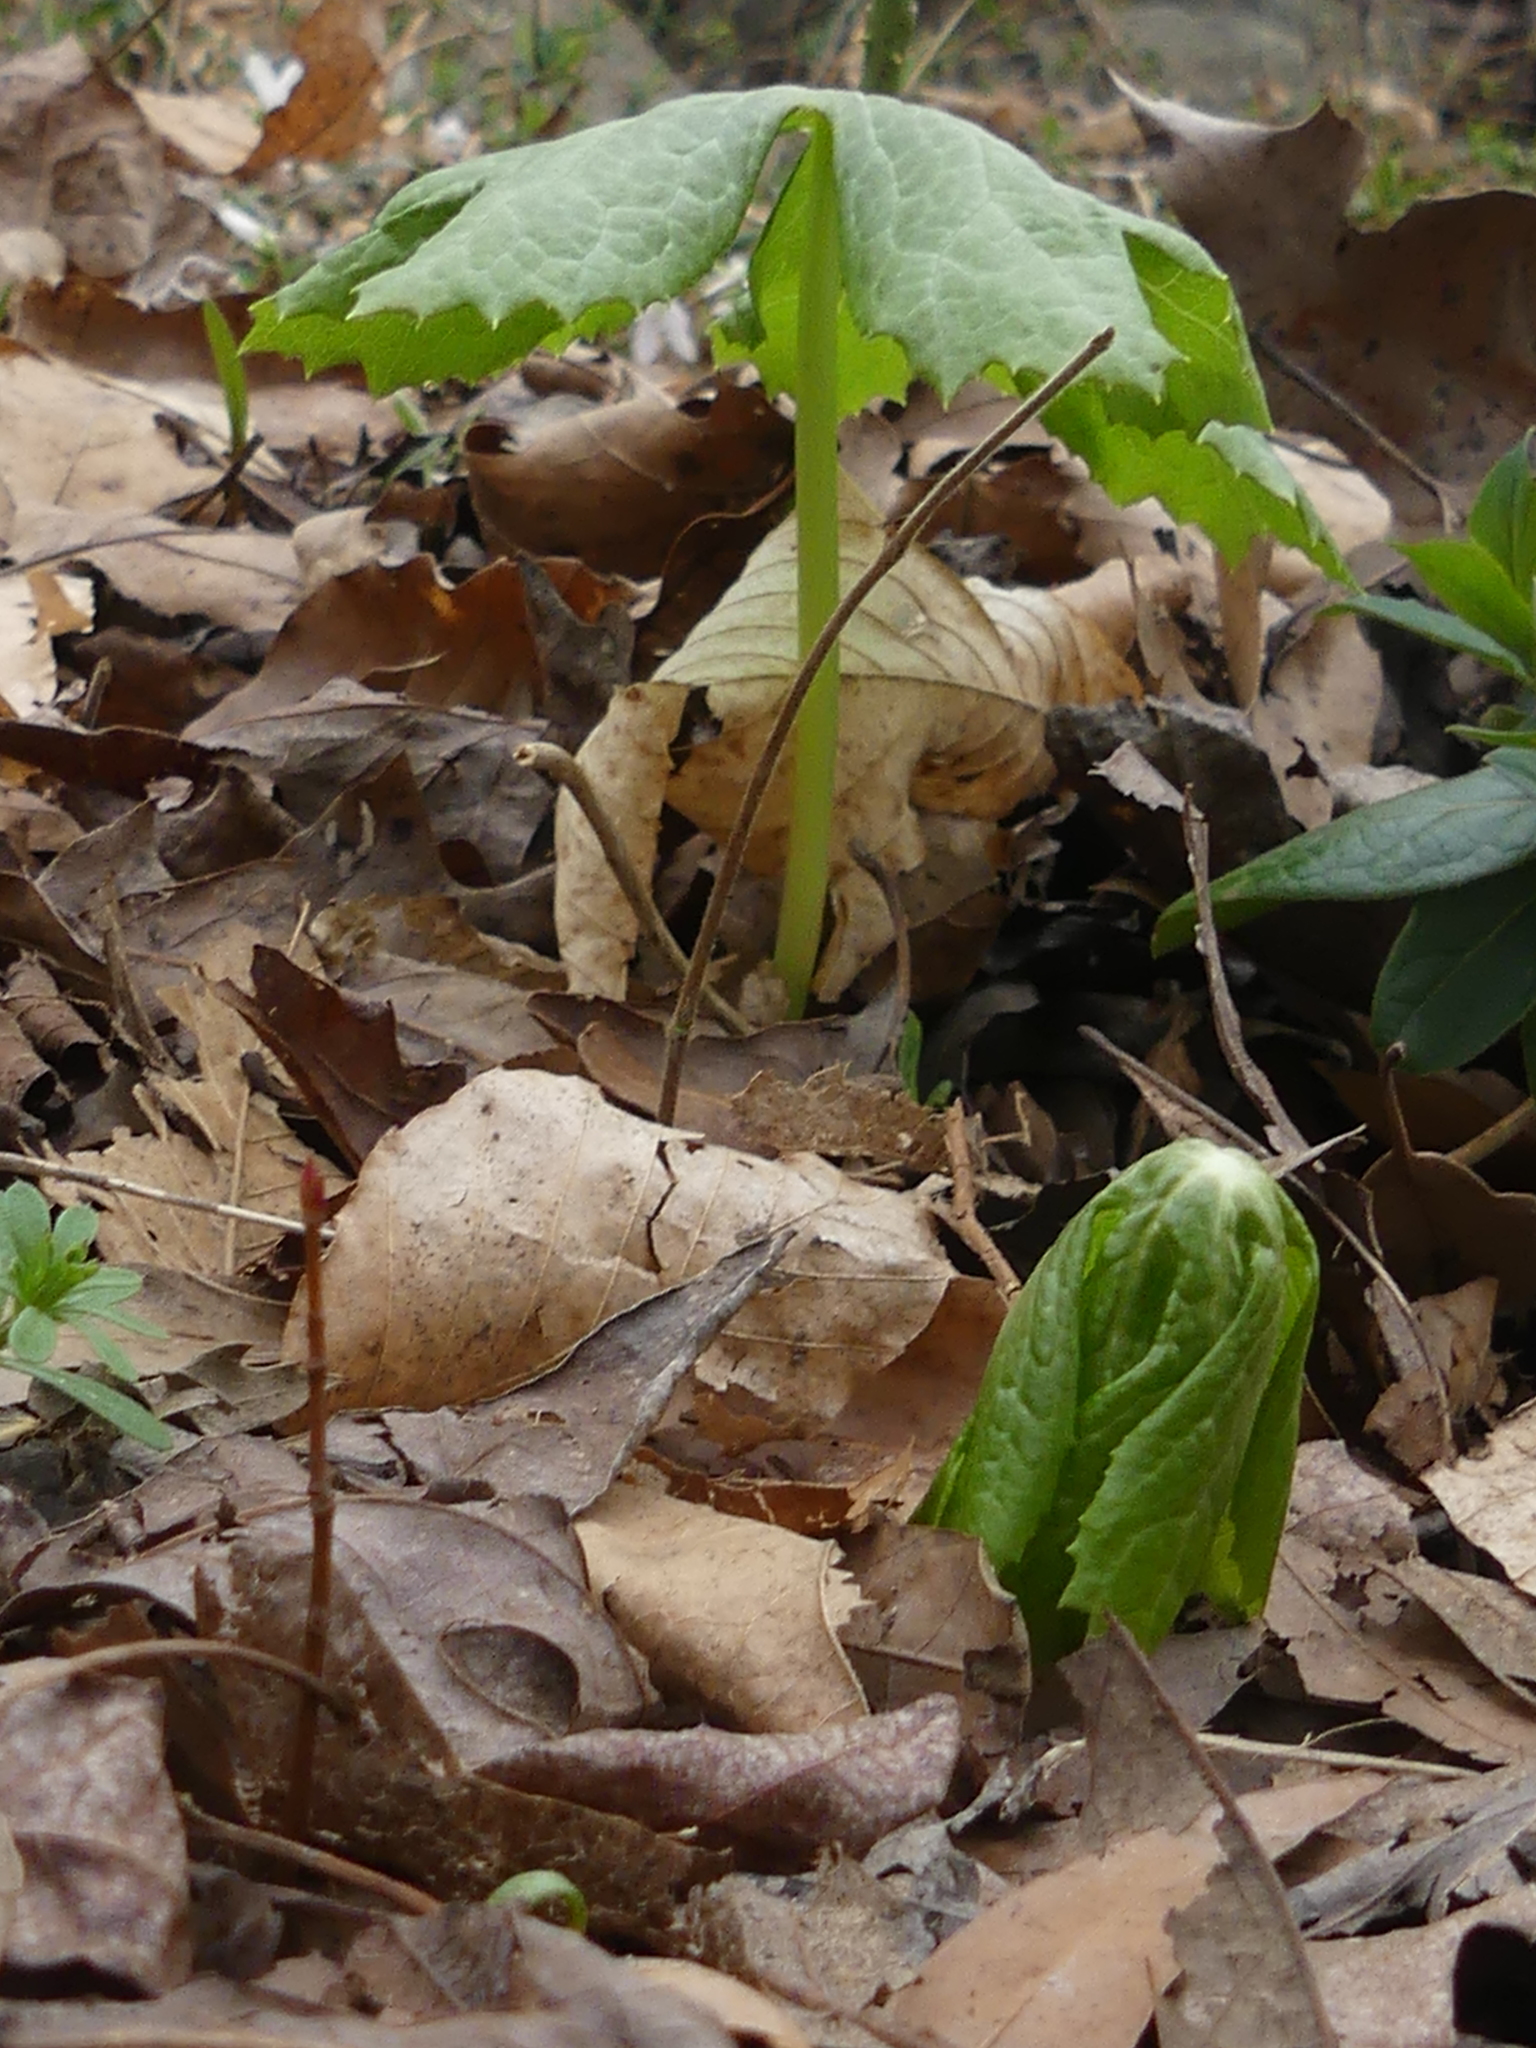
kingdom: Plantae
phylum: Tracheophyta
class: Magnoliopsida
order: Ranunculales
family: Berberidaceae
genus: Podophyllum
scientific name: Podophyllum peltatum
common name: Wild mandrake
